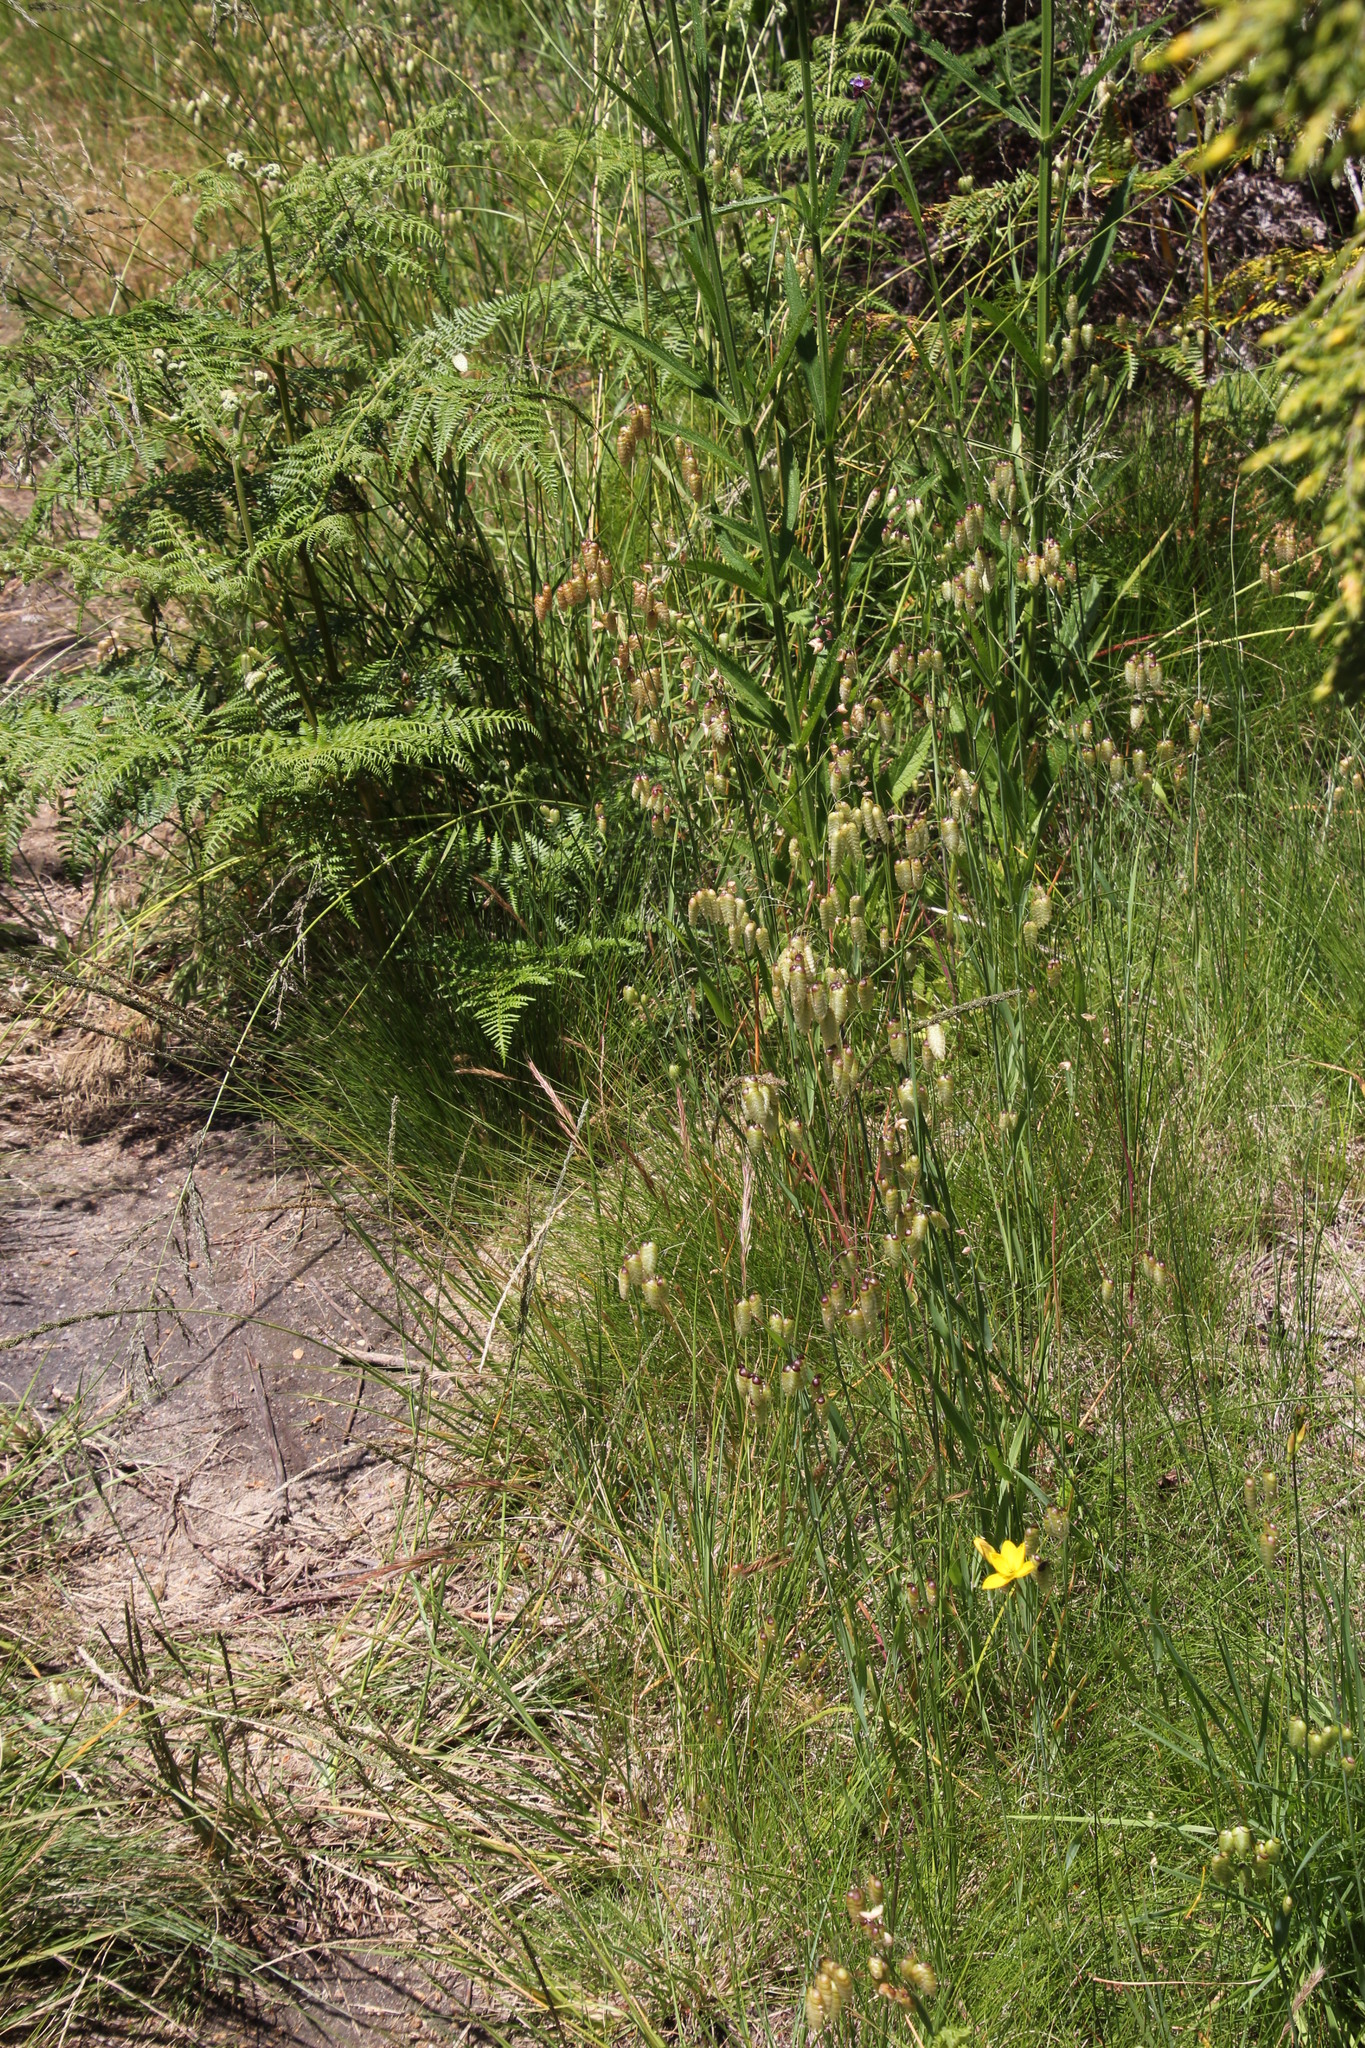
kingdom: Plantae
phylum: Tracheophyta
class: Liliopsida
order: Poales
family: Poaceae
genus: Briza
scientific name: Briza maxima
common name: Big quakinggrass
